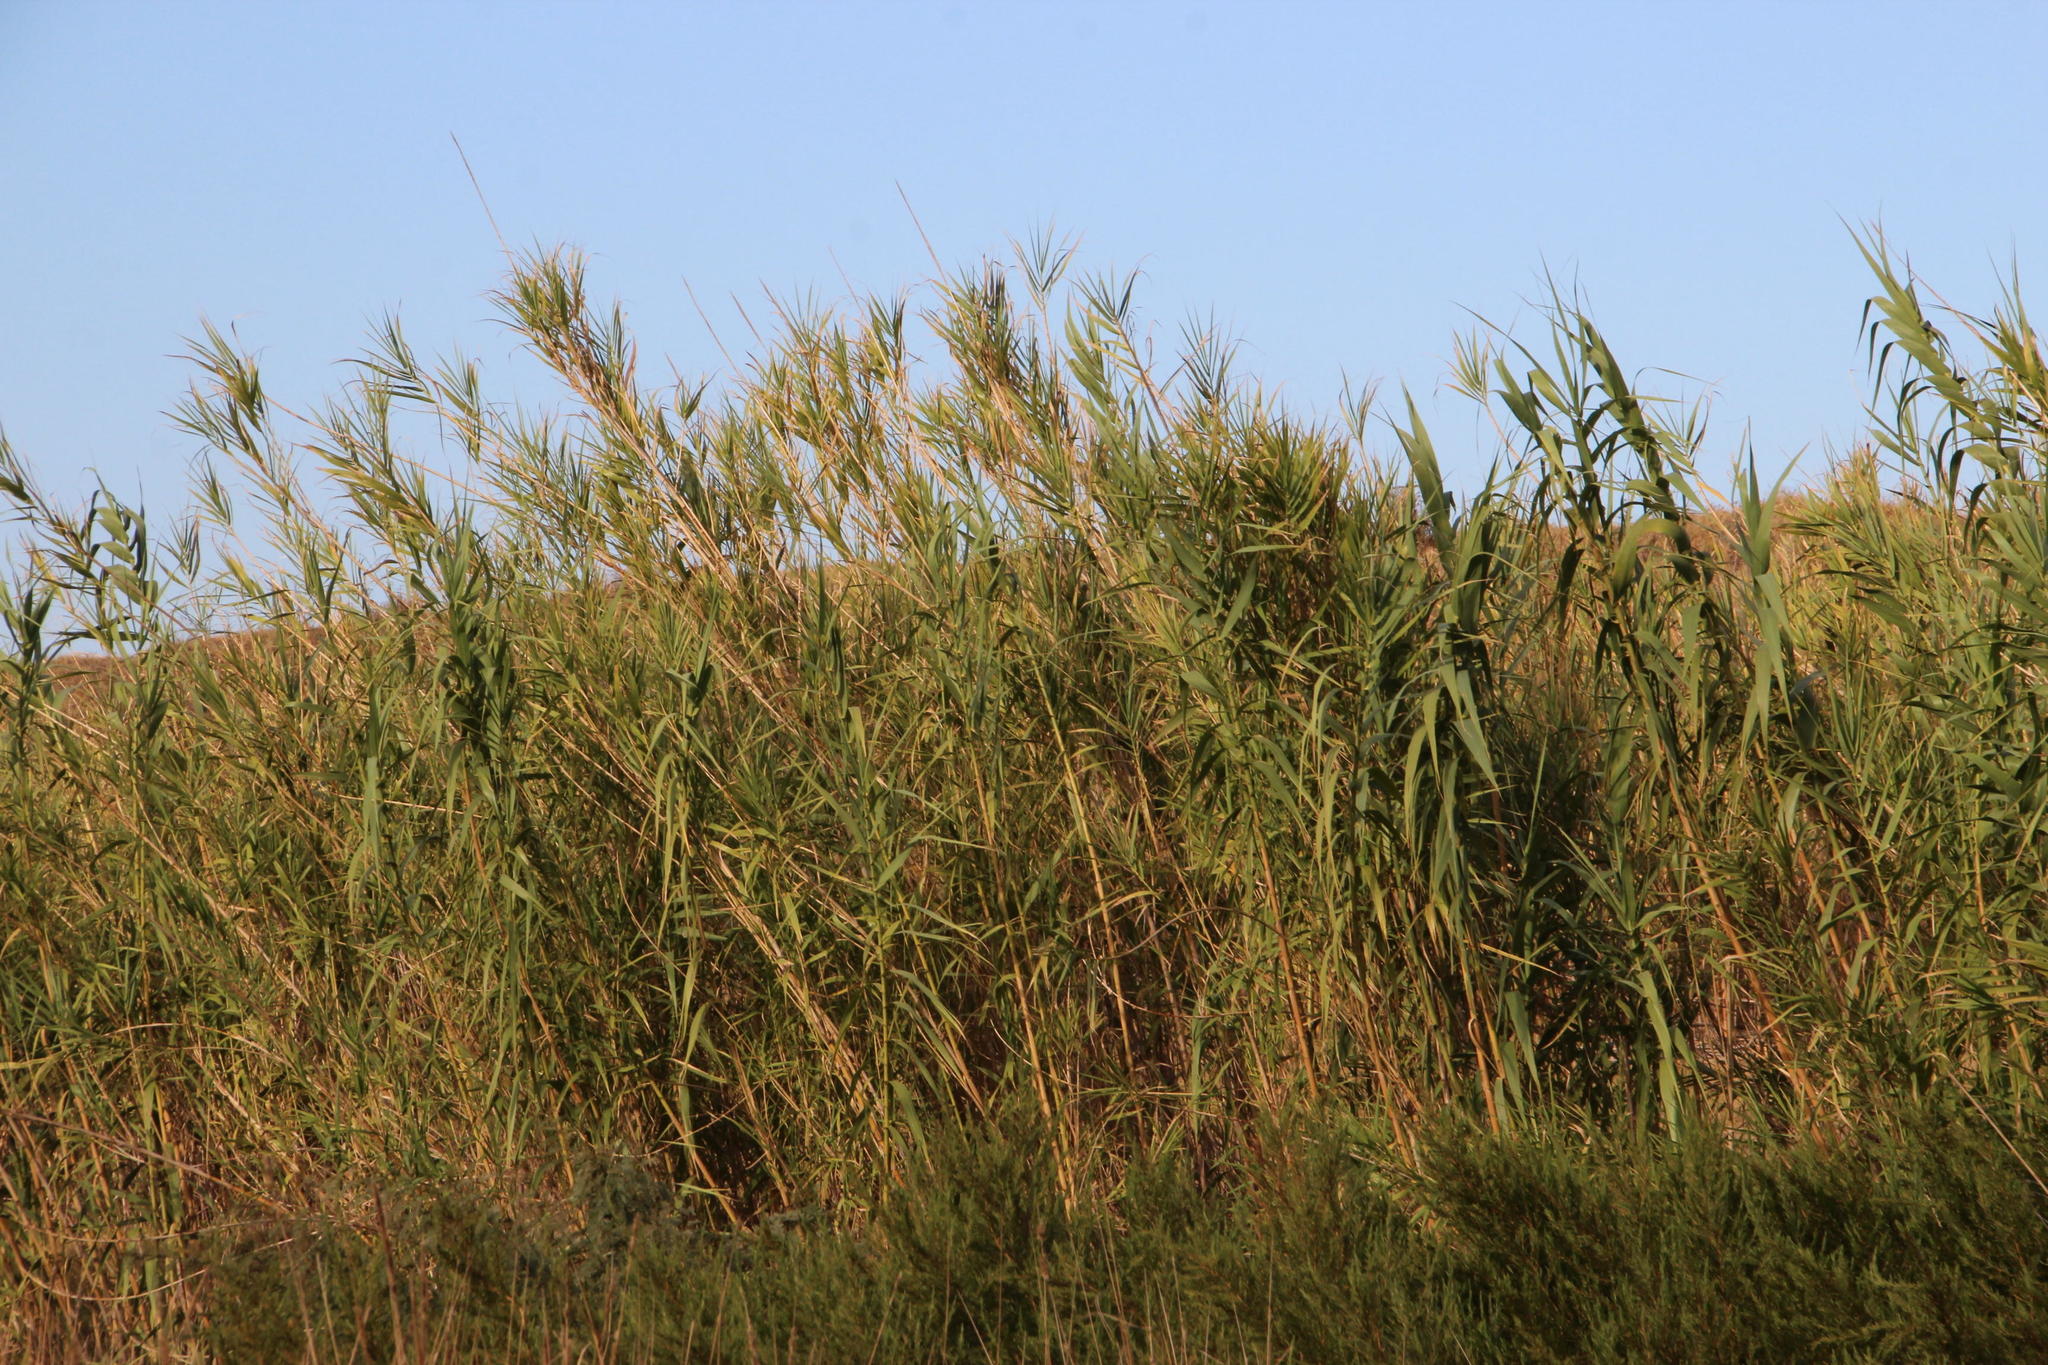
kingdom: Plantae
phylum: Tracheophyta
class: Liliopsida
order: Poales
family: Poaceae
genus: Arundo
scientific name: Arundo donax
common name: Giant reed
